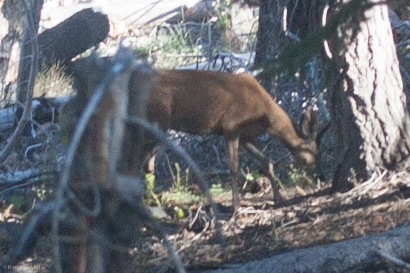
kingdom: Animalia
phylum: Chordata
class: Mammalia
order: Artiodactyla
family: Cervidae
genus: Odocoileus
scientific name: Odocoileus hemionus
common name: Mule deer
